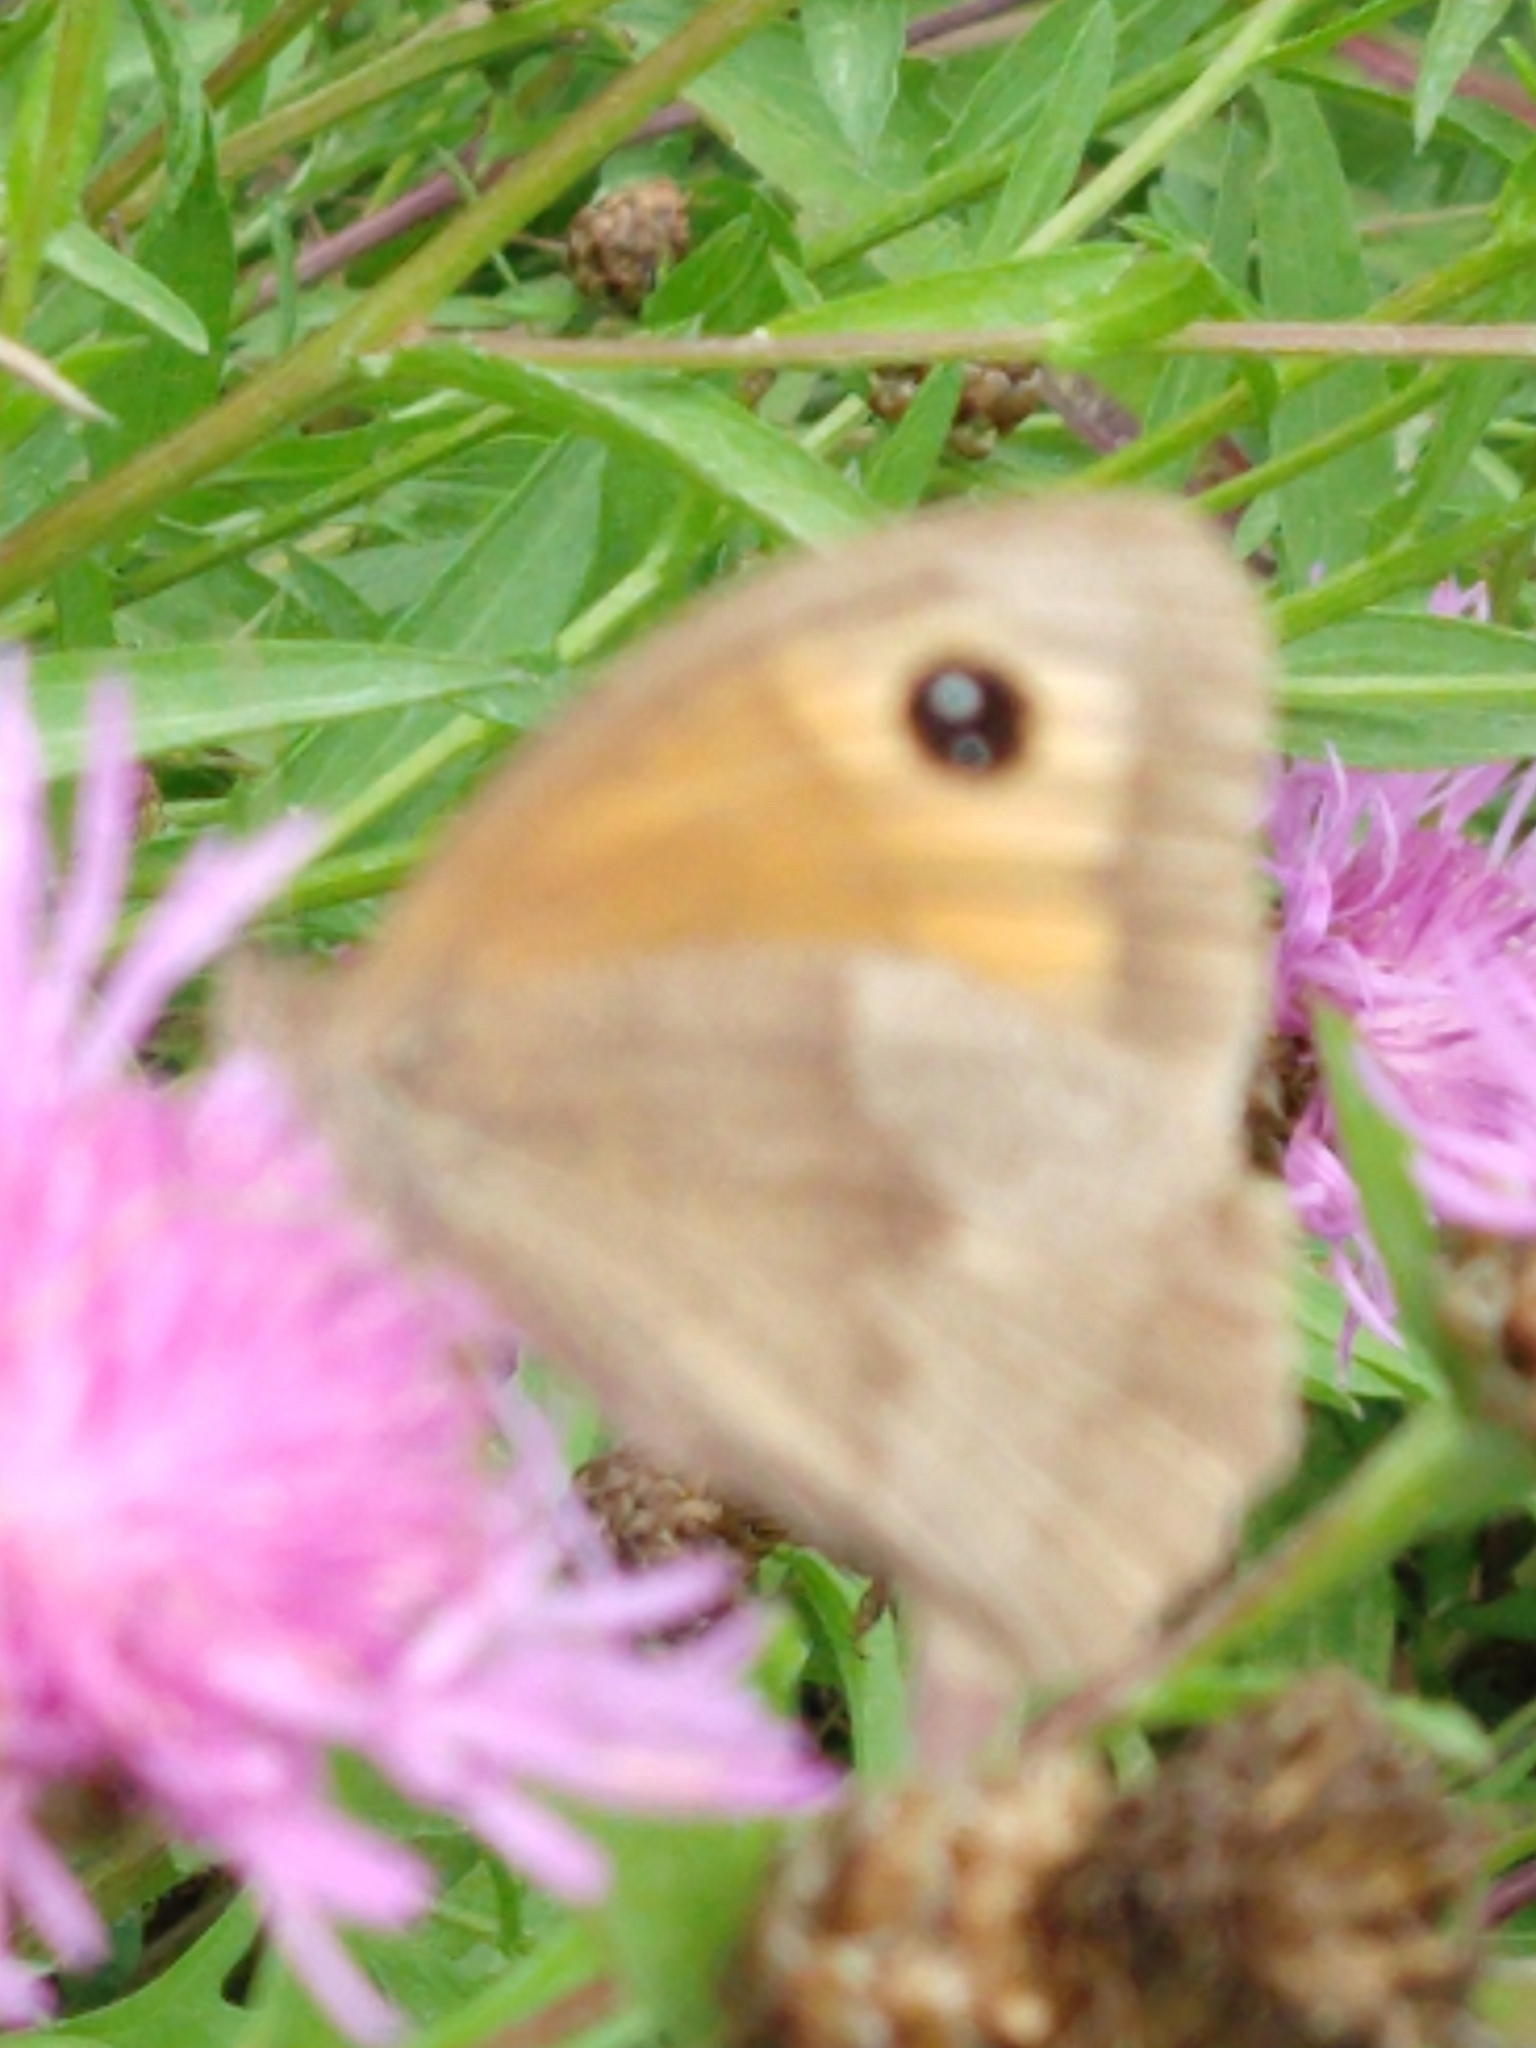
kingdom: Animalia
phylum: Arthropoda
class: Insecta
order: Lepidoptera
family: Nymphalidae
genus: Maniola
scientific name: Maniola jurtina
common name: Meadow brown
